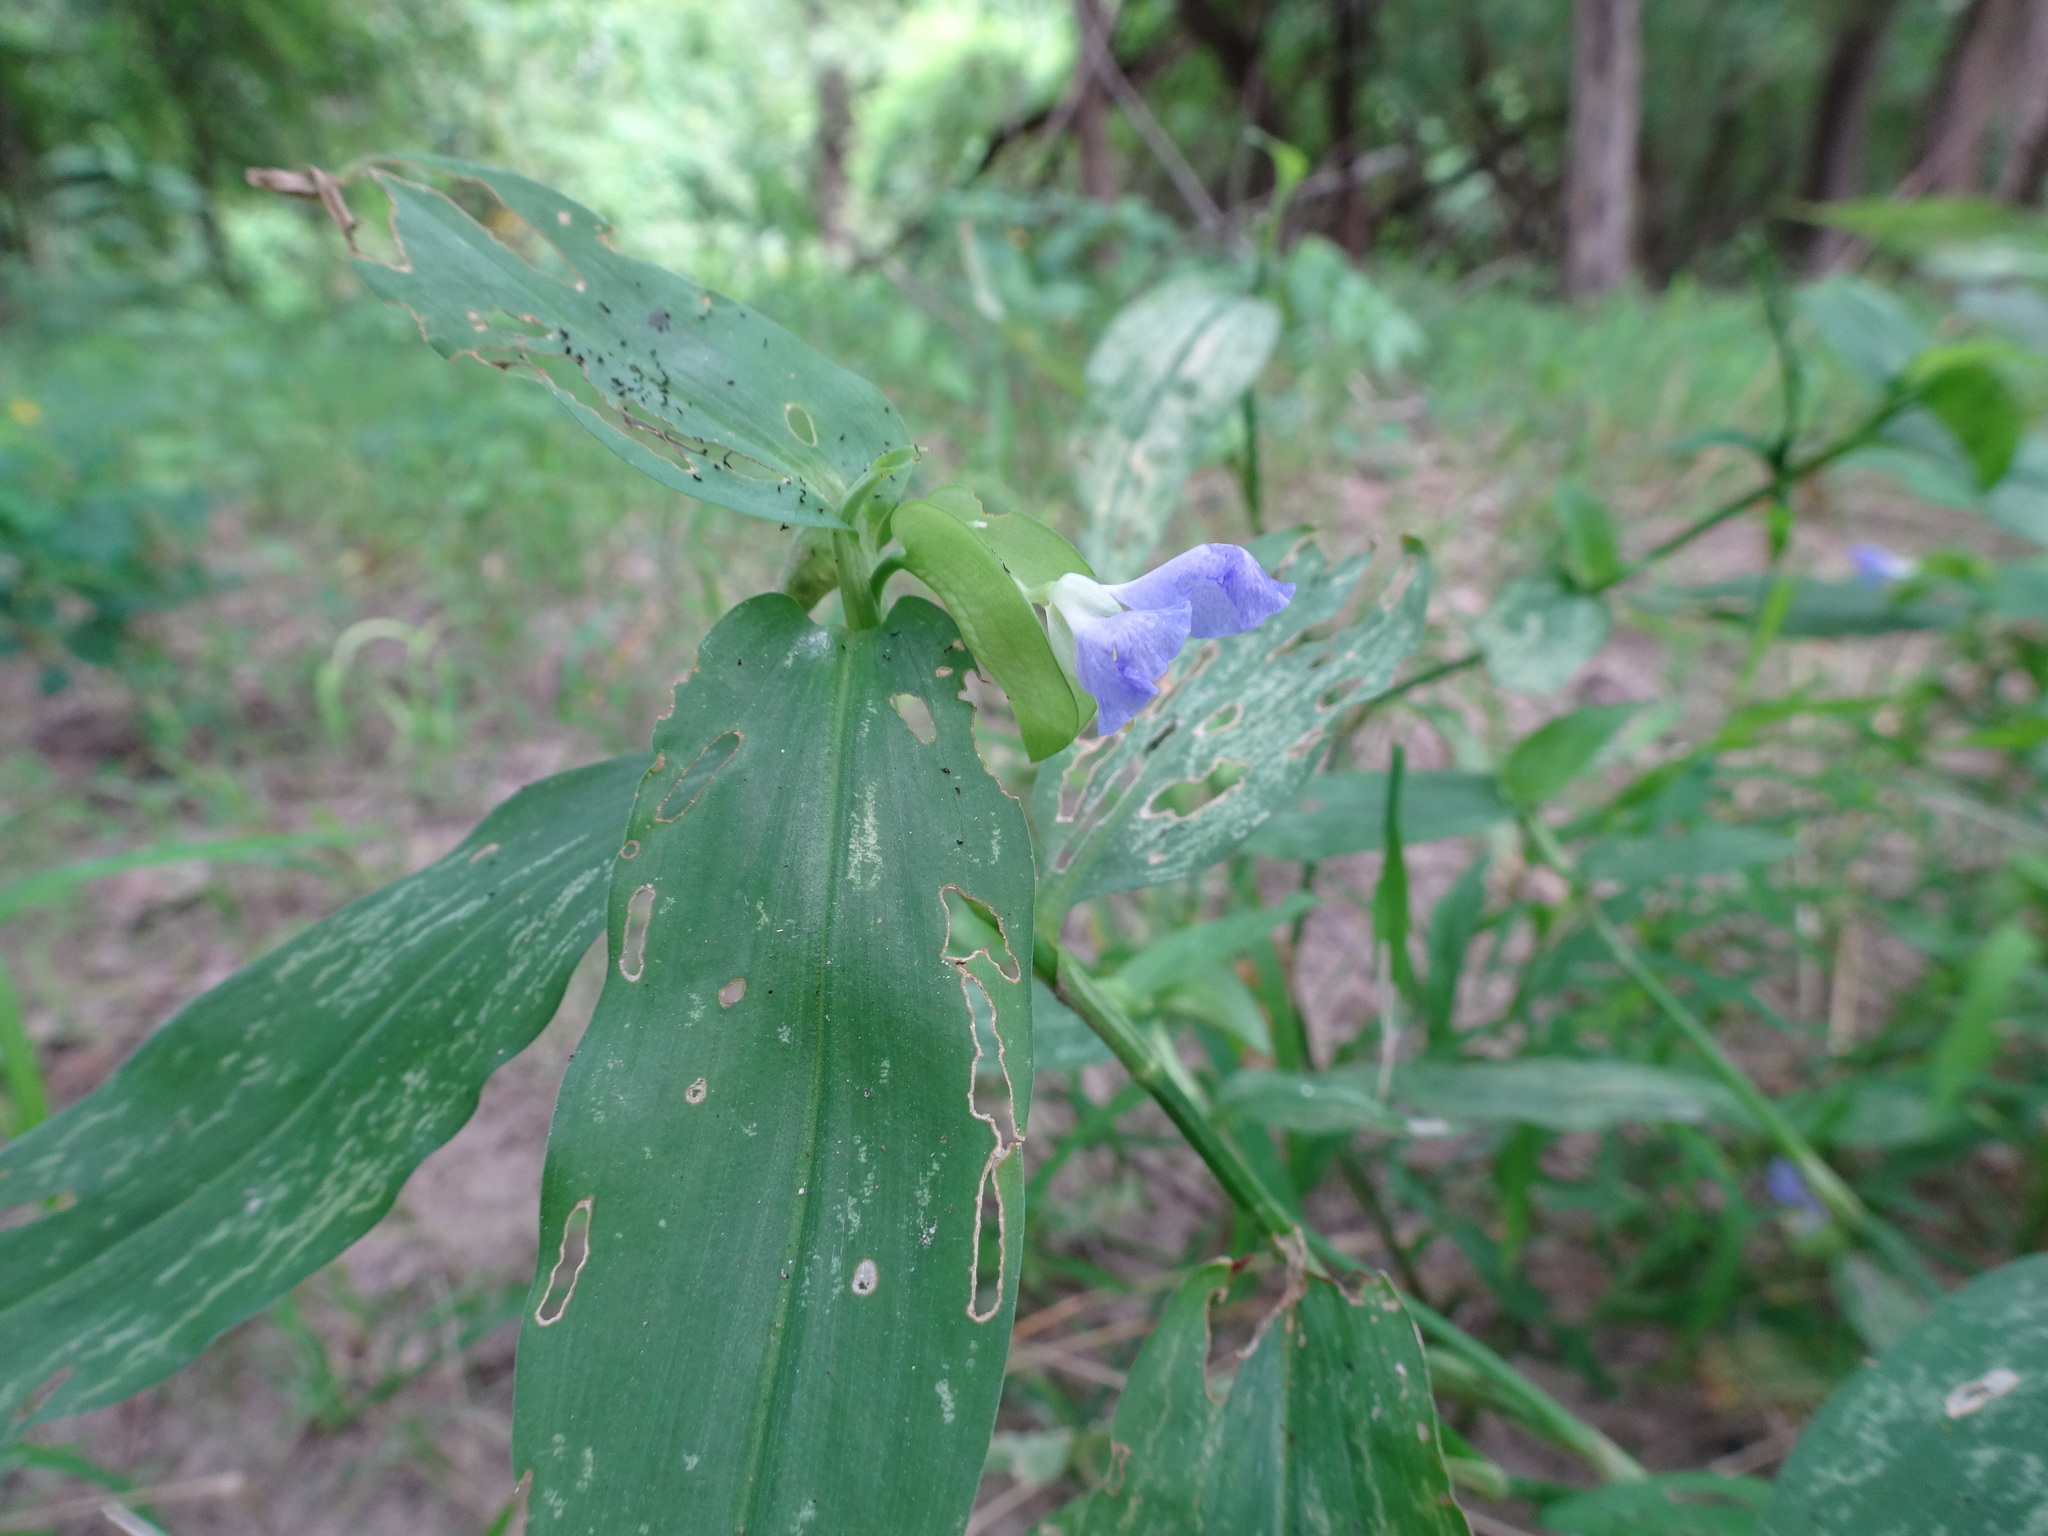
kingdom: Plantae
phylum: Tracheophyta
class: Liliopsida
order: Commelinales
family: Commelinaceae
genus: Commelina
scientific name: Commelina erecta
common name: Blousel blommetjie
